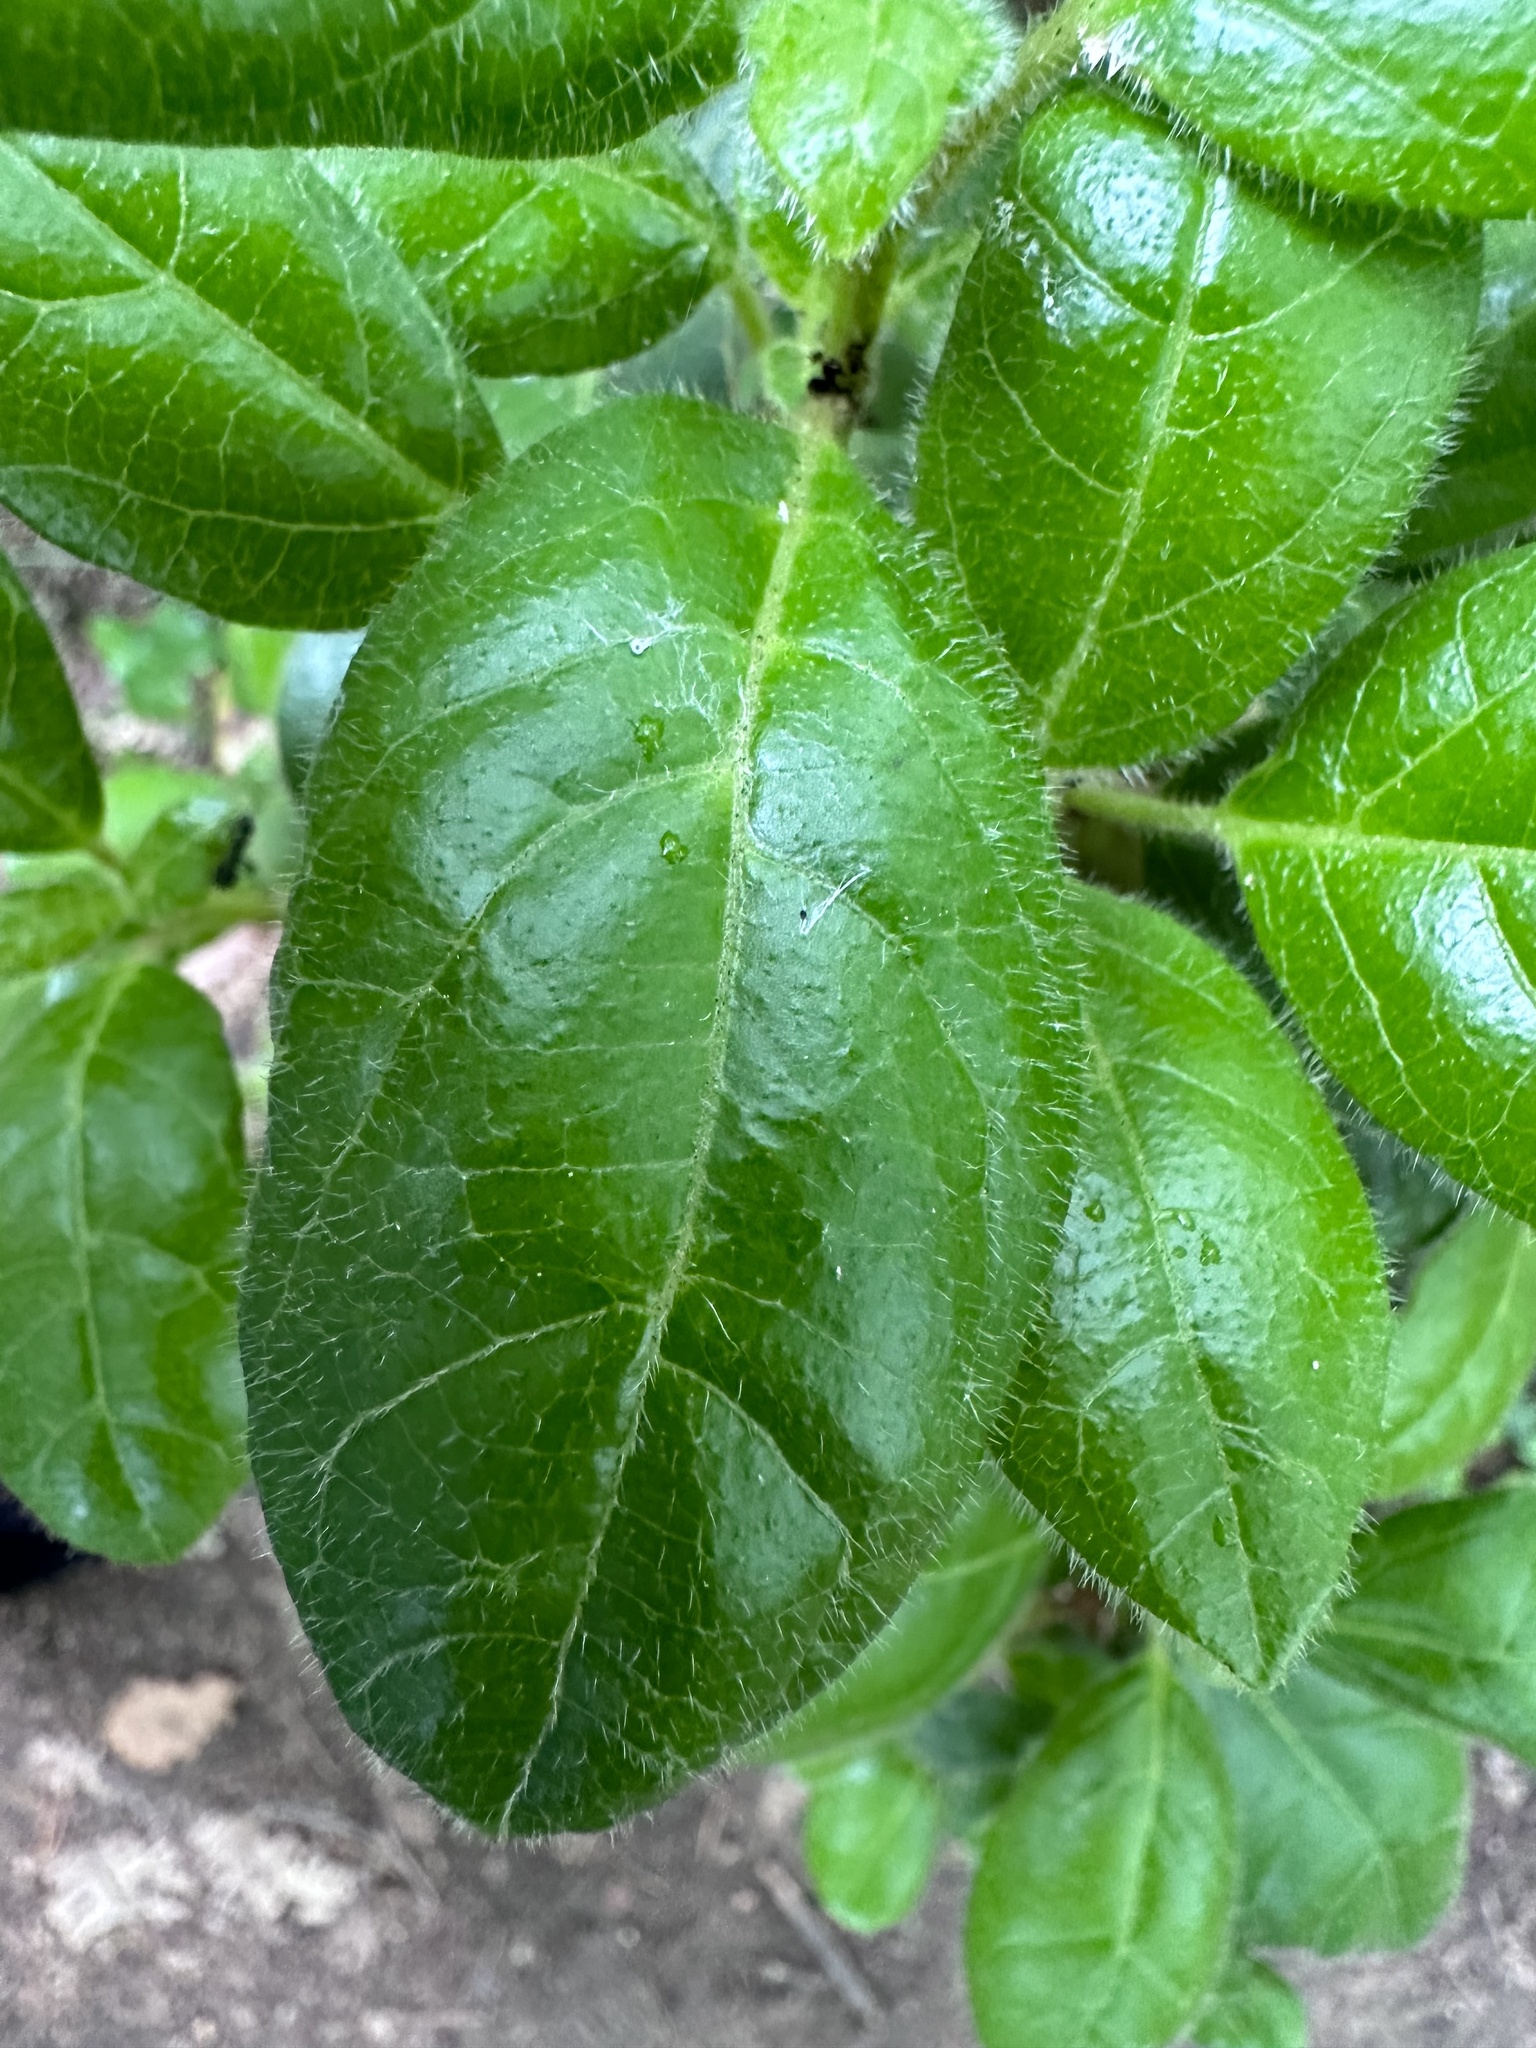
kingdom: Plantae
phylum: Tracheophyta
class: Magnoliopsida
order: Dipsacales
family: Viburnaceae
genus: Viburnum
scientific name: Viburnum tinus
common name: Laurustinus
